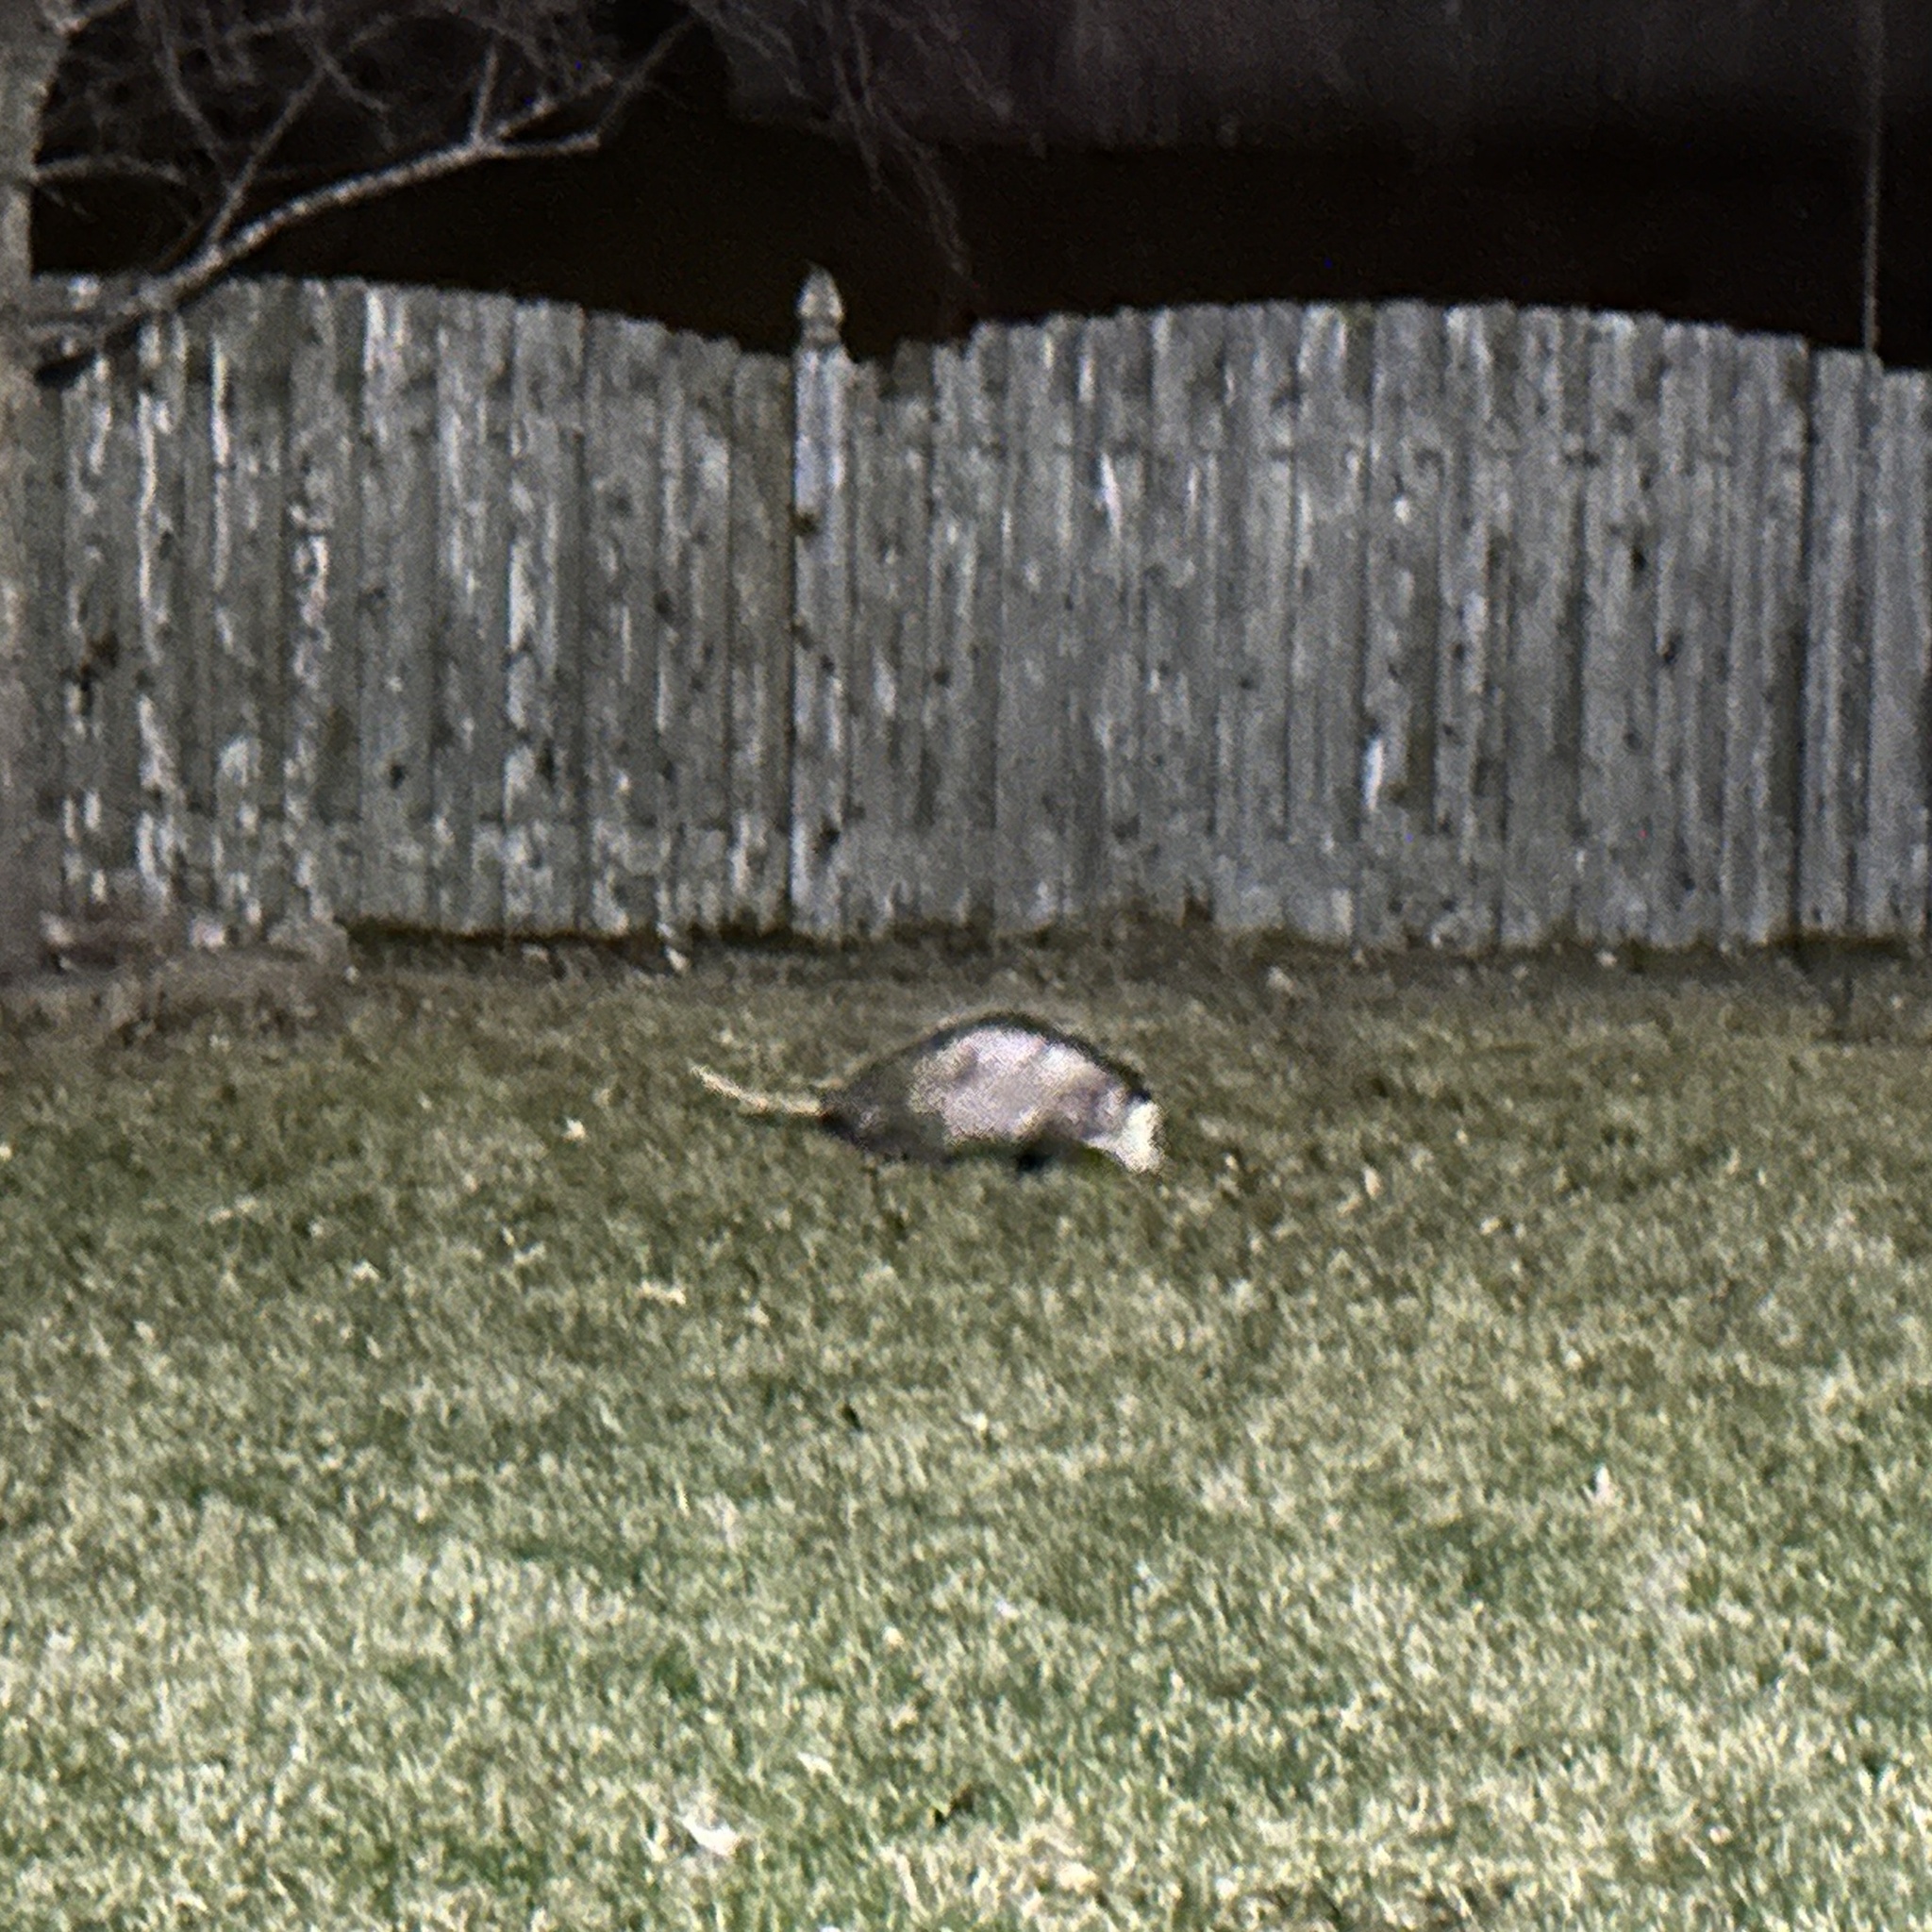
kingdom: Animalia
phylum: Chordata
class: Mammalia
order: Didelphimorphia
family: Didelphidae
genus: Didelphis
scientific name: Didelphis virginiana
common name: Virginia opossum
